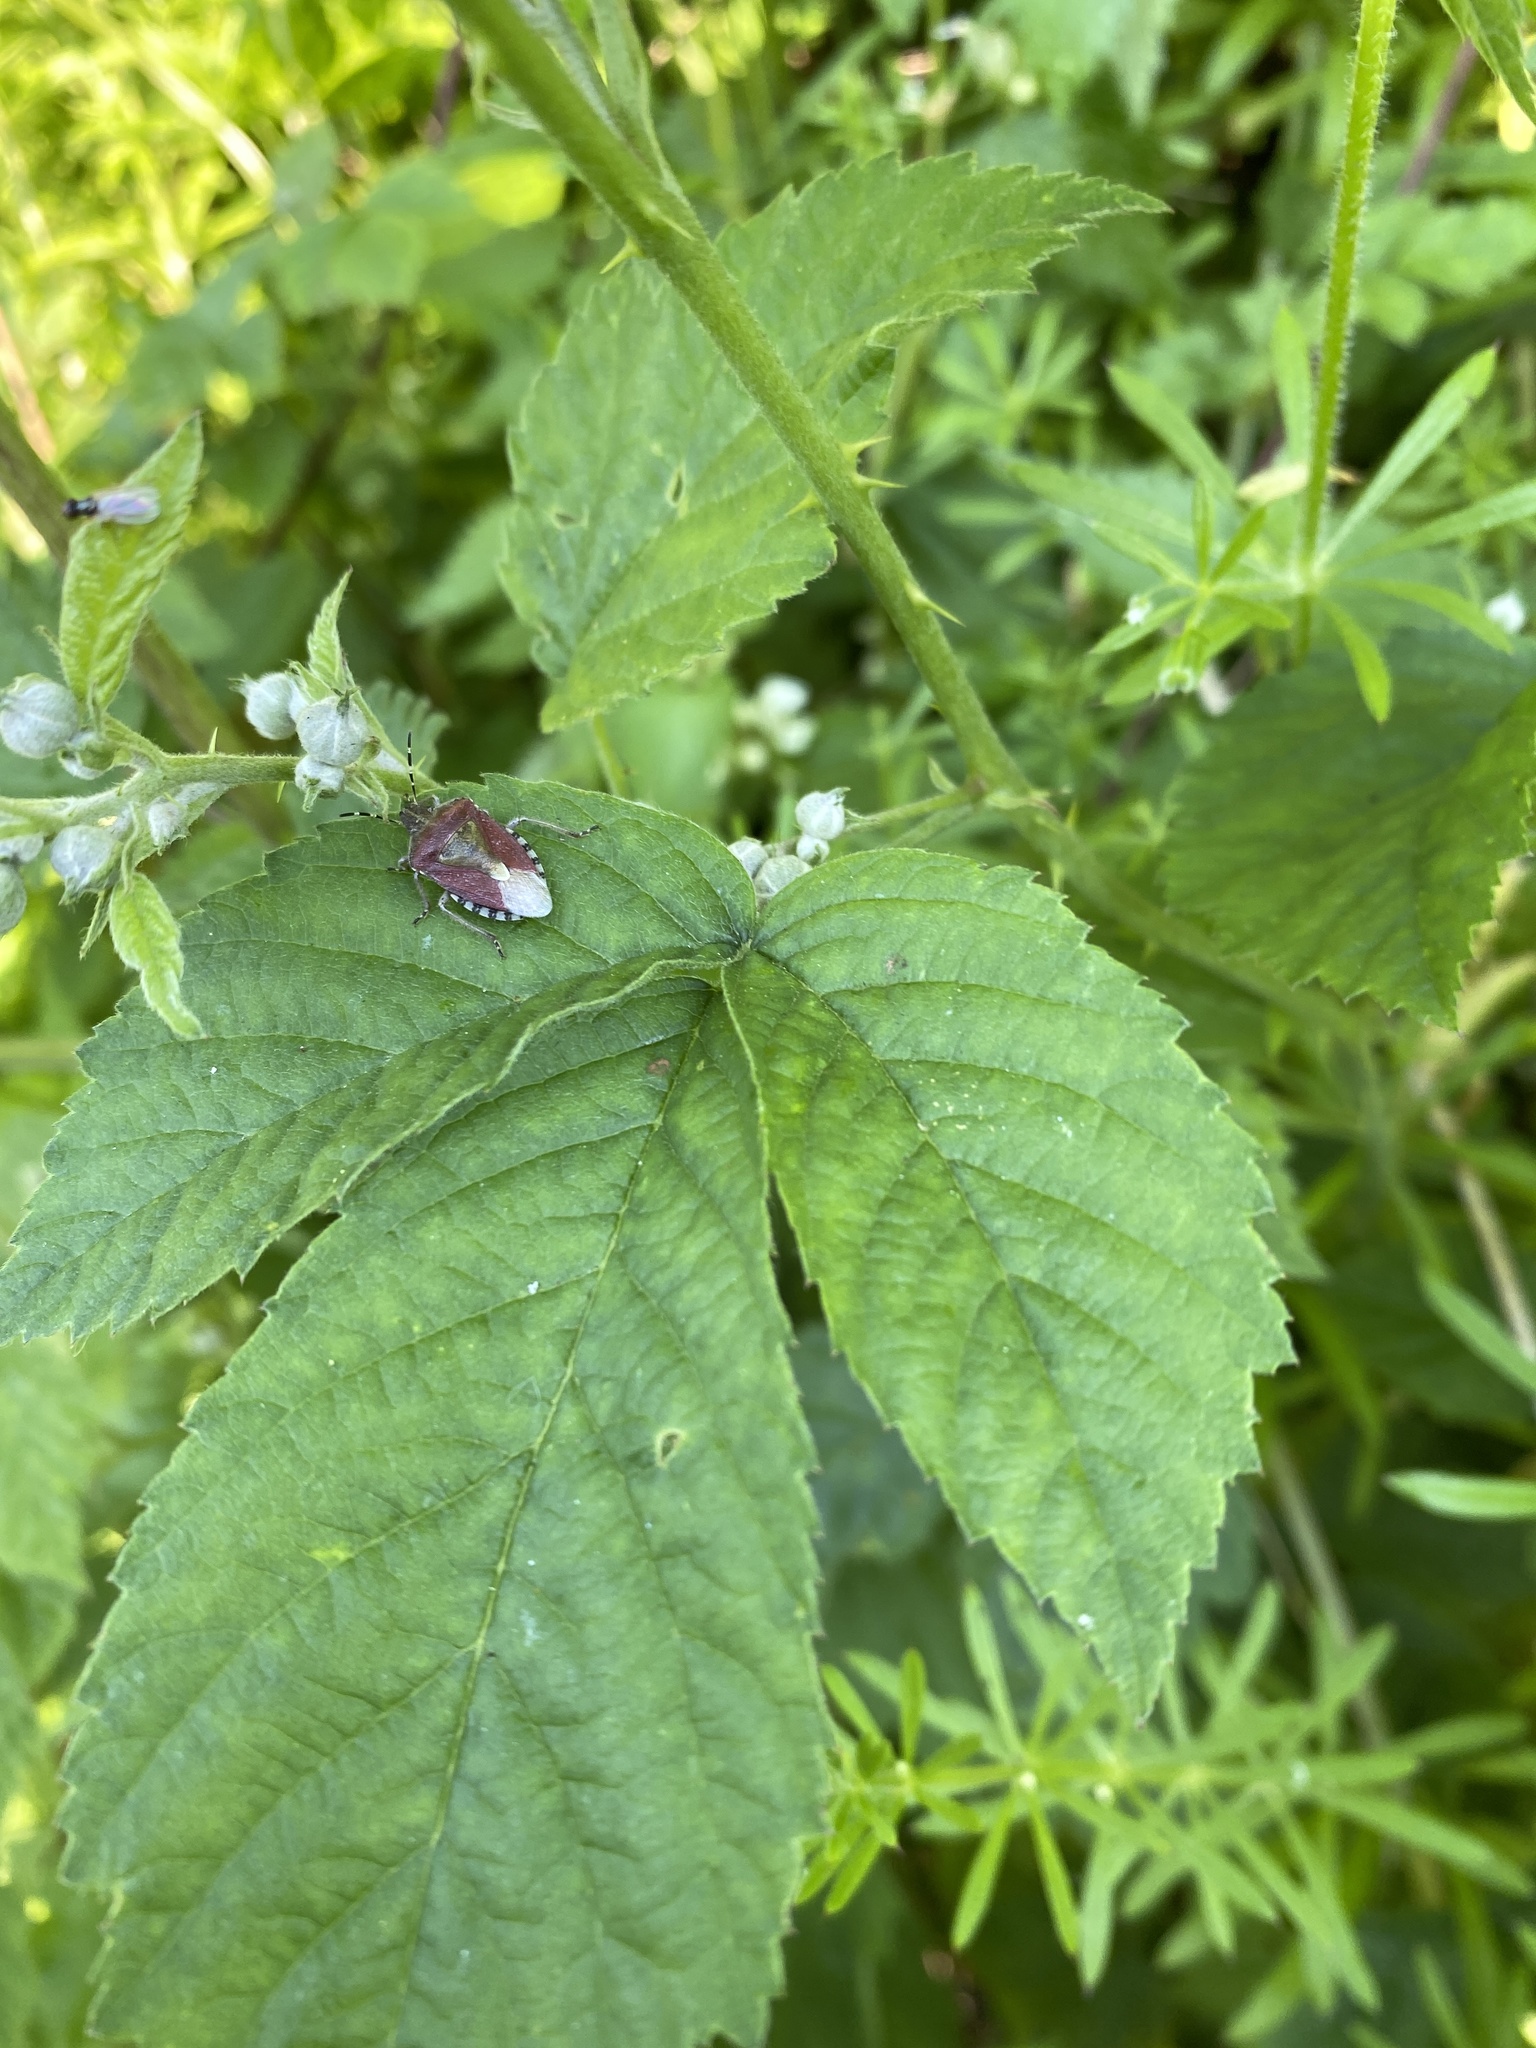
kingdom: Animalia
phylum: Arthropoda
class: Insecta
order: Hemiptera
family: Pentatomidae
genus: Dolycoris
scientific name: Dolycoris baccarum
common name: Sloe bug
